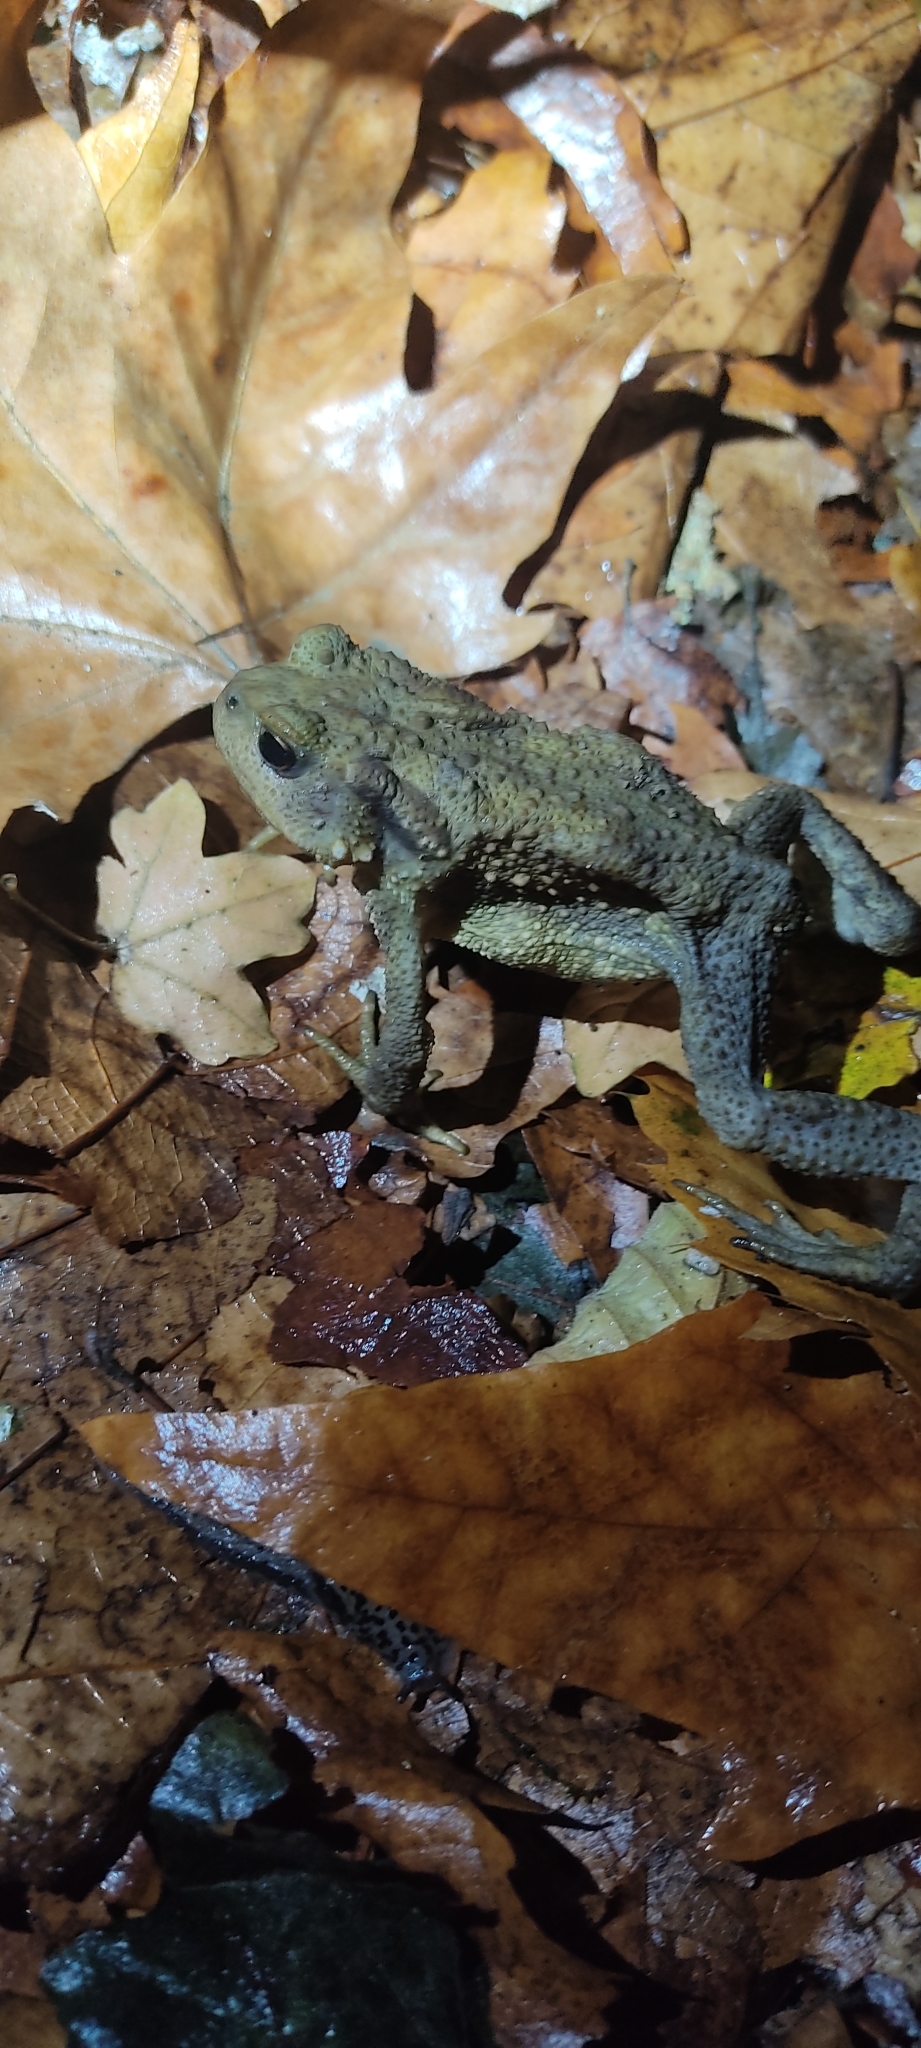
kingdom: Animalia
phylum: Chordata
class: Amphibia
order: Anura
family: Bufonidae
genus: Bufo
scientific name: Bufo spinosus
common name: Western common toad
